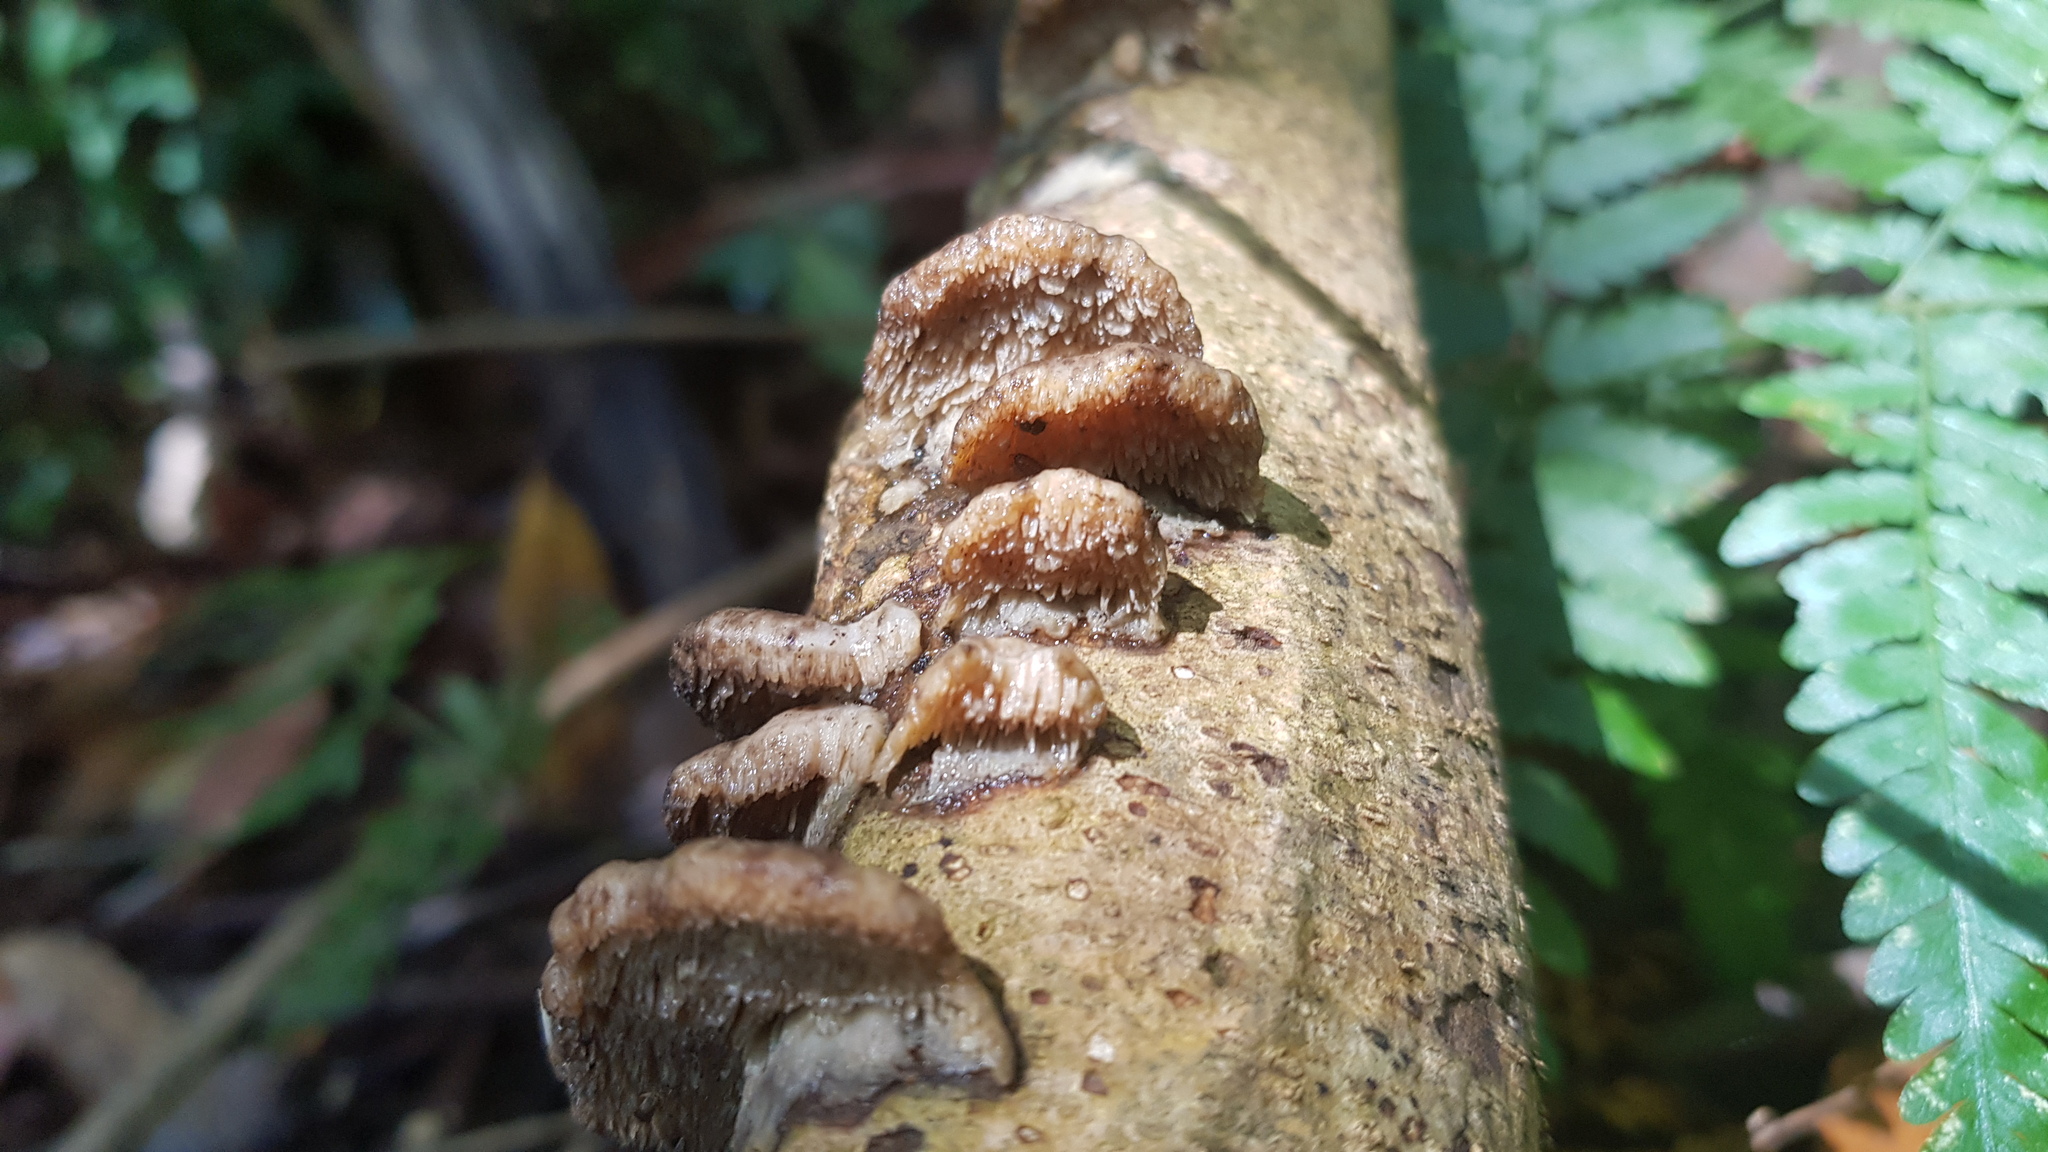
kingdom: Fungi
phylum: Basidiomycota
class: Agaricomycetes
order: Polyporales
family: Cerrenaceae
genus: Cerrena
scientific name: Cerrena zonata
